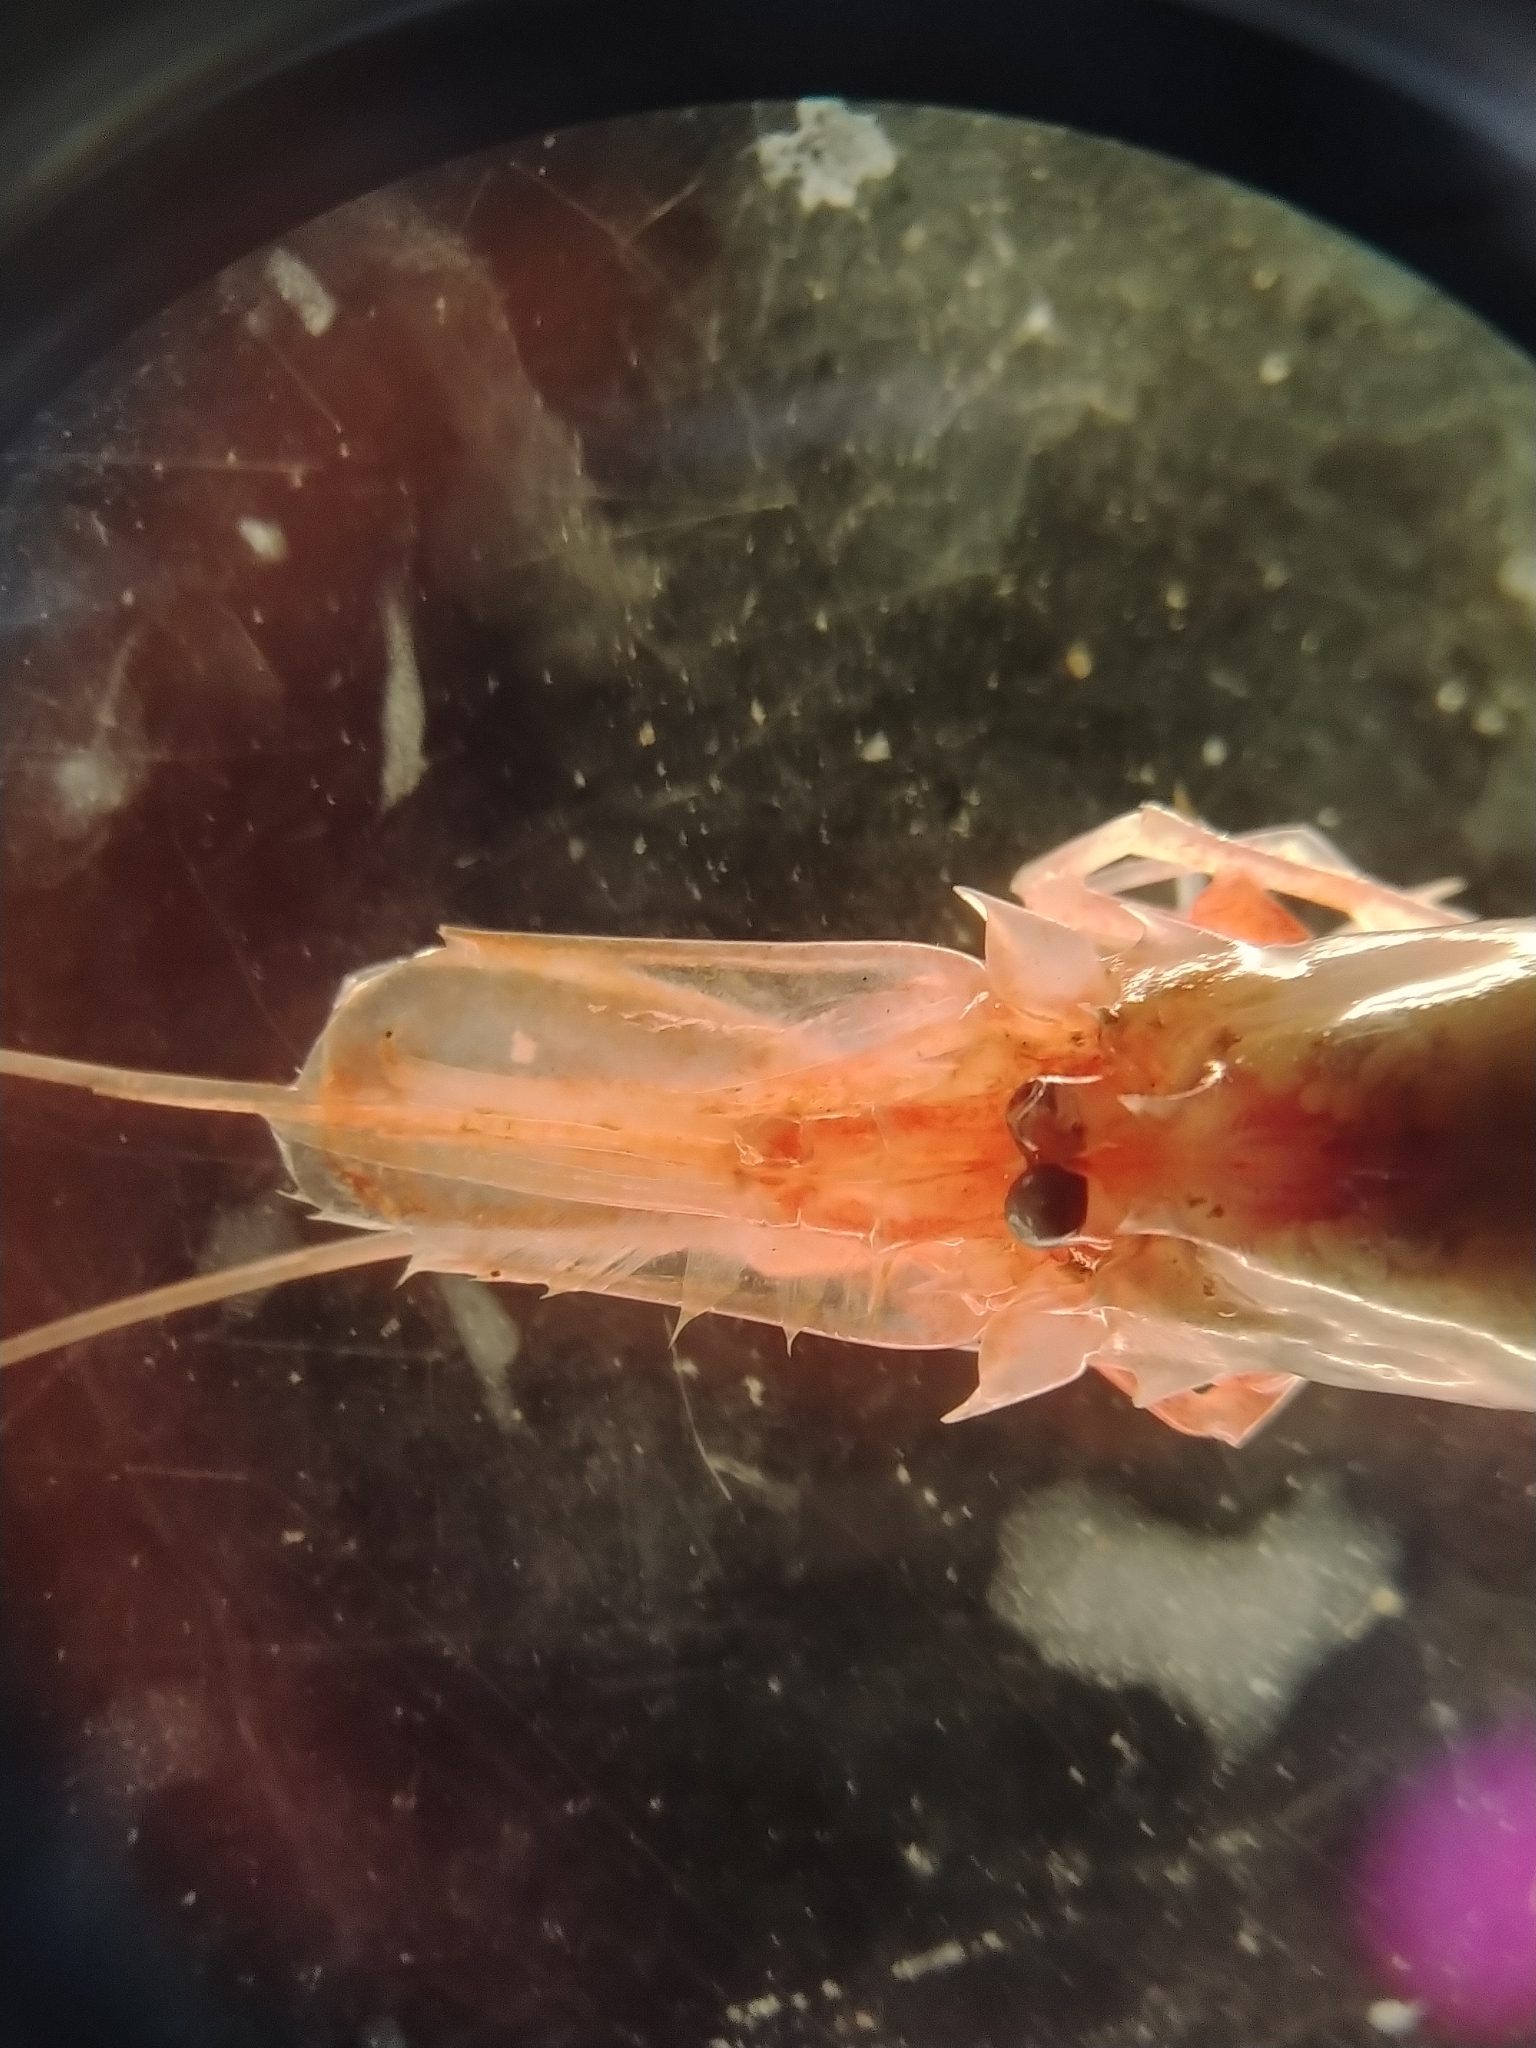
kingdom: Animalia
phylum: Arthropoda
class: Malacostraca
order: Decapoda
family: Bythocarididae
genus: Bythocaris
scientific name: Bythocaris payeri
